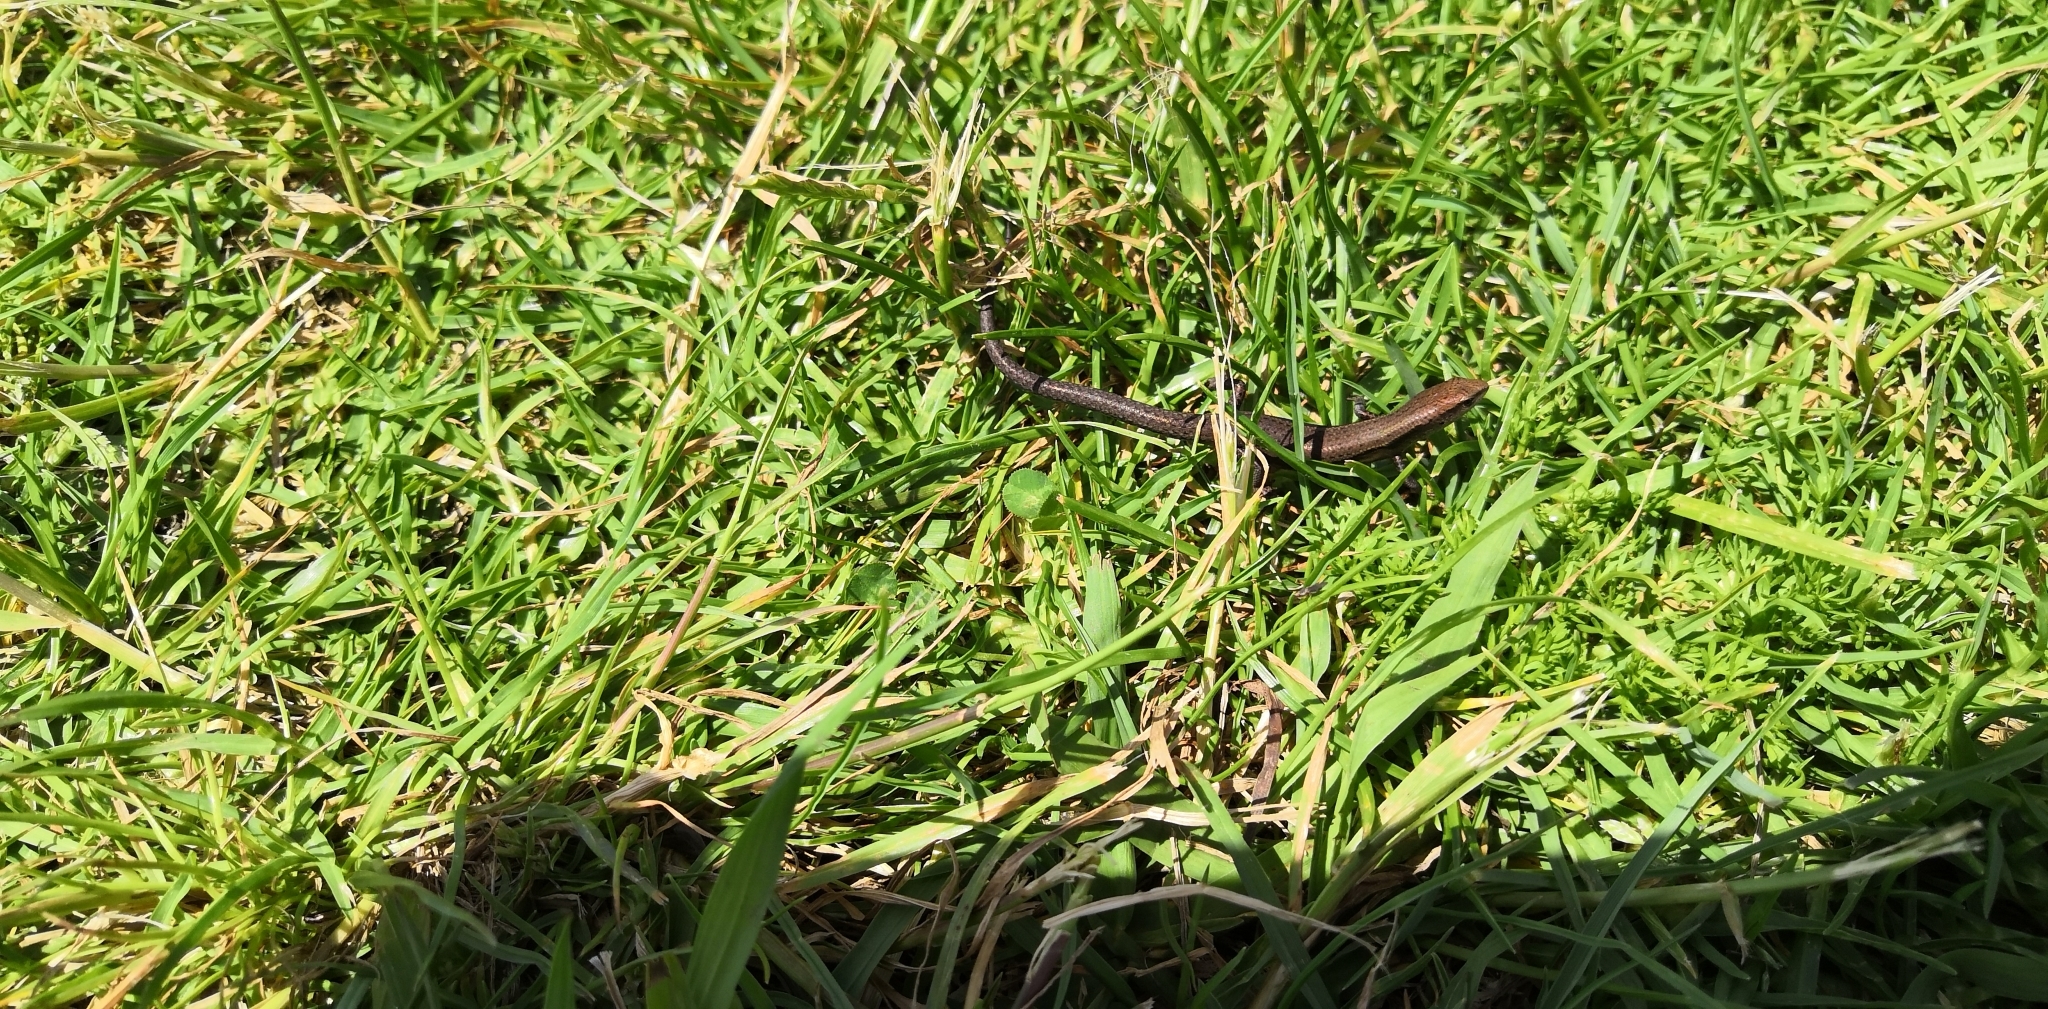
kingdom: Animalia
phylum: Chordata
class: Squamata
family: Scincidae
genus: Lampropholis
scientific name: Lampropholis delicata
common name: Plague skink
